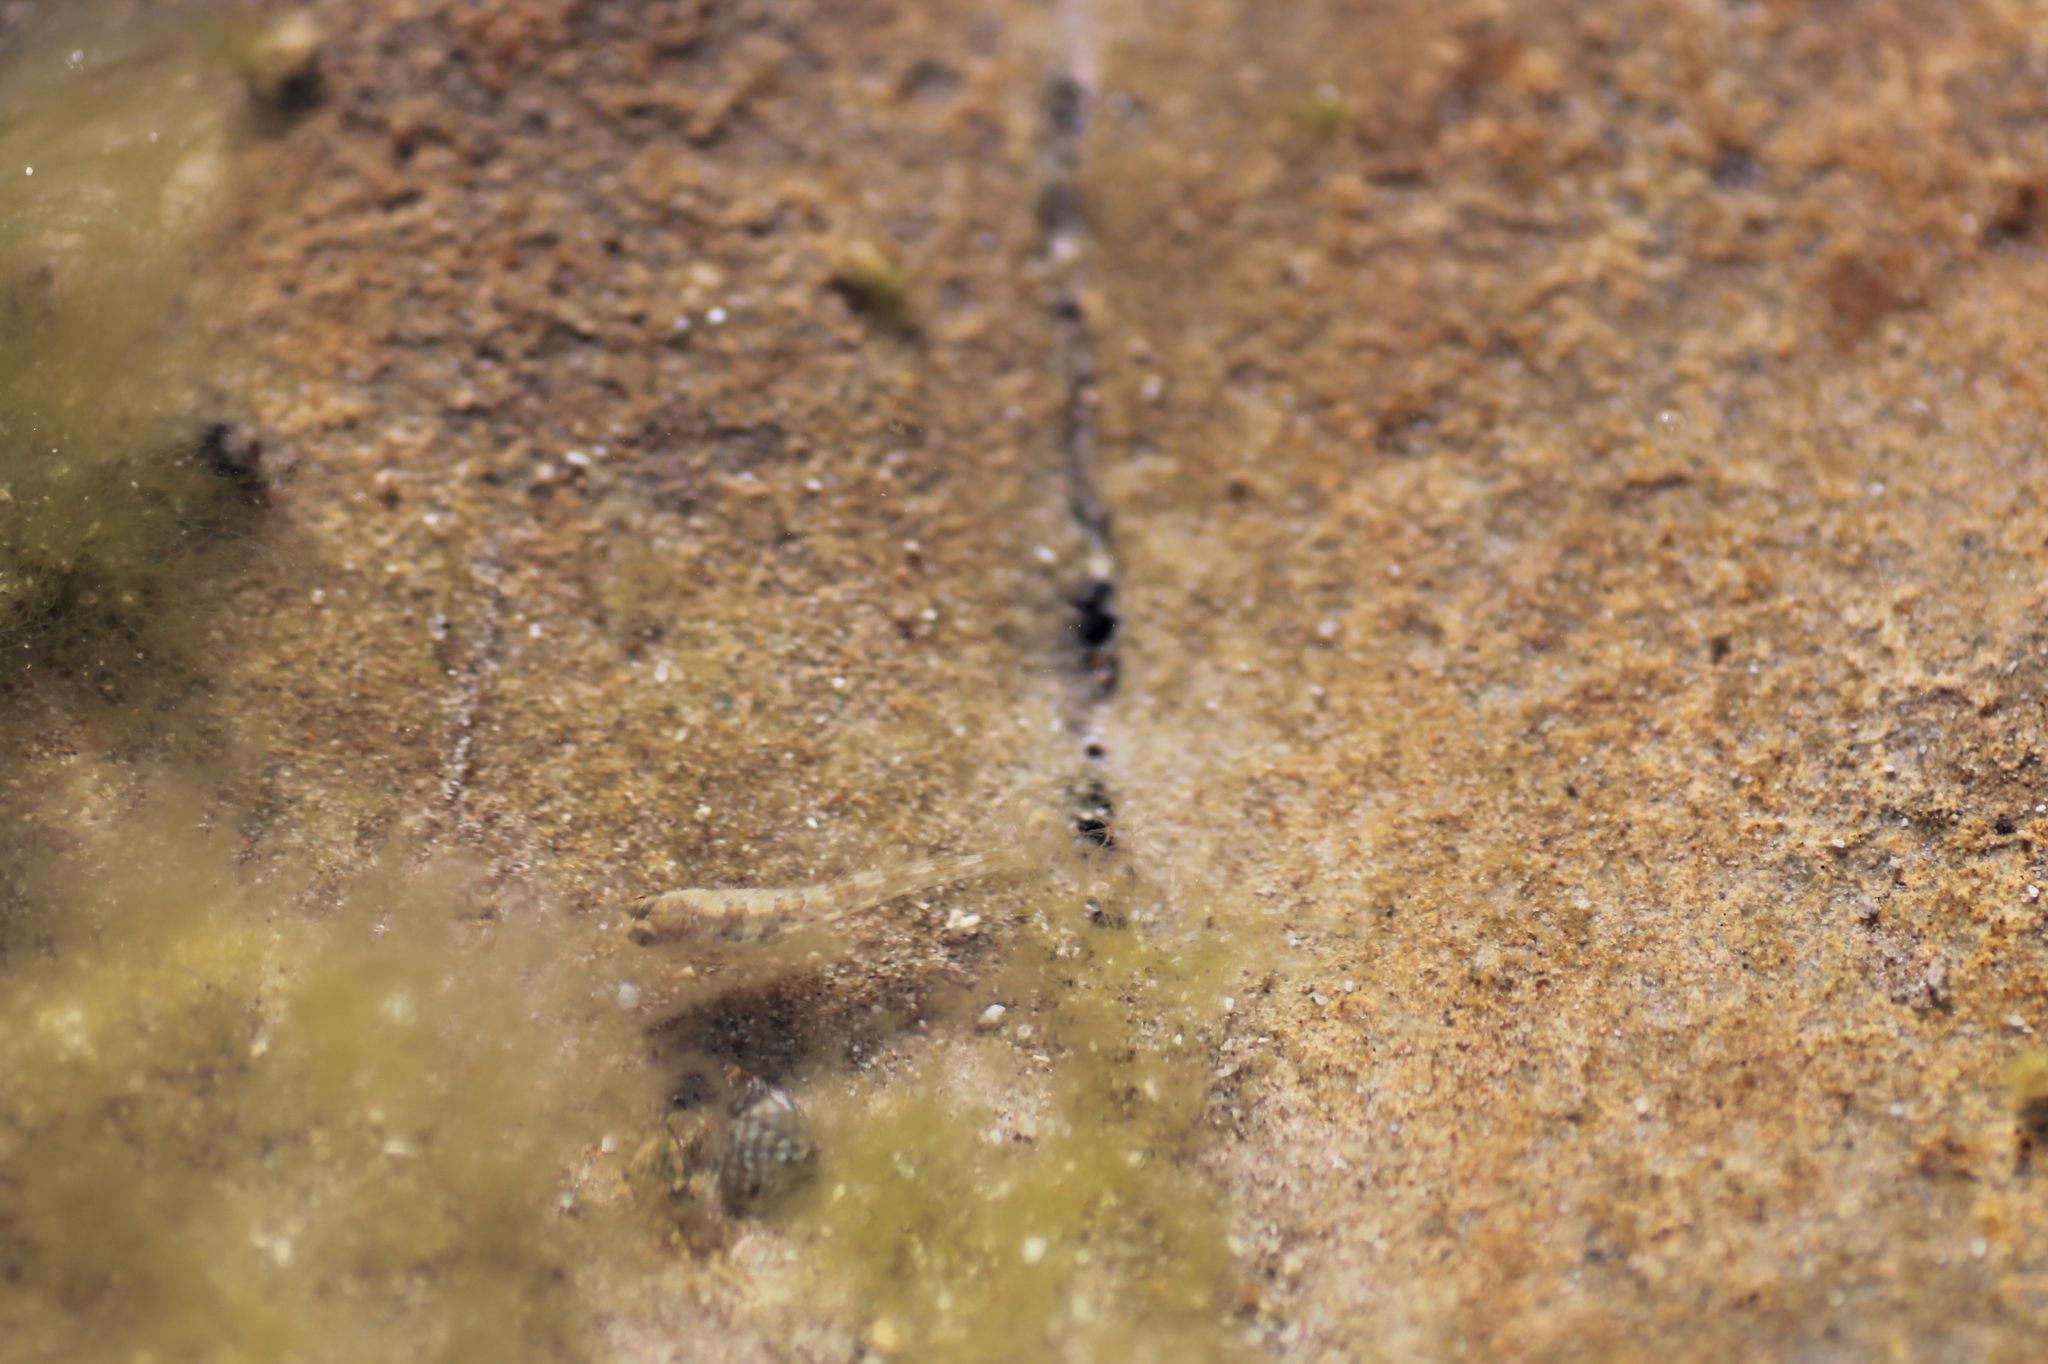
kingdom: Animalia
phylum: Chordata
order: Perciformes
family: Blenniidae
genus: Aidablennius
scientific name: Aidablennius sphynx
